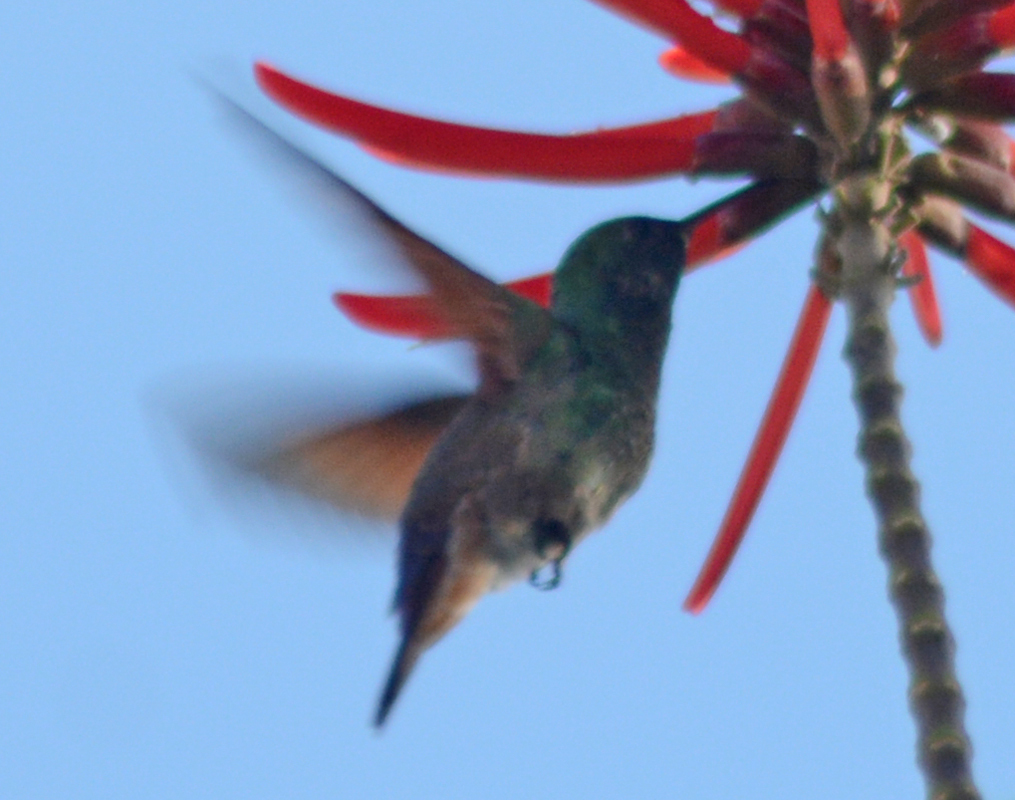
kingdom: Animalia
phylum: Chordata
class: Aves
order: Apodiformes
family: Trochilidae
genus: Saucerottia
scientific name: Saucerottia beryllina
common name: Berylline hummingbird
